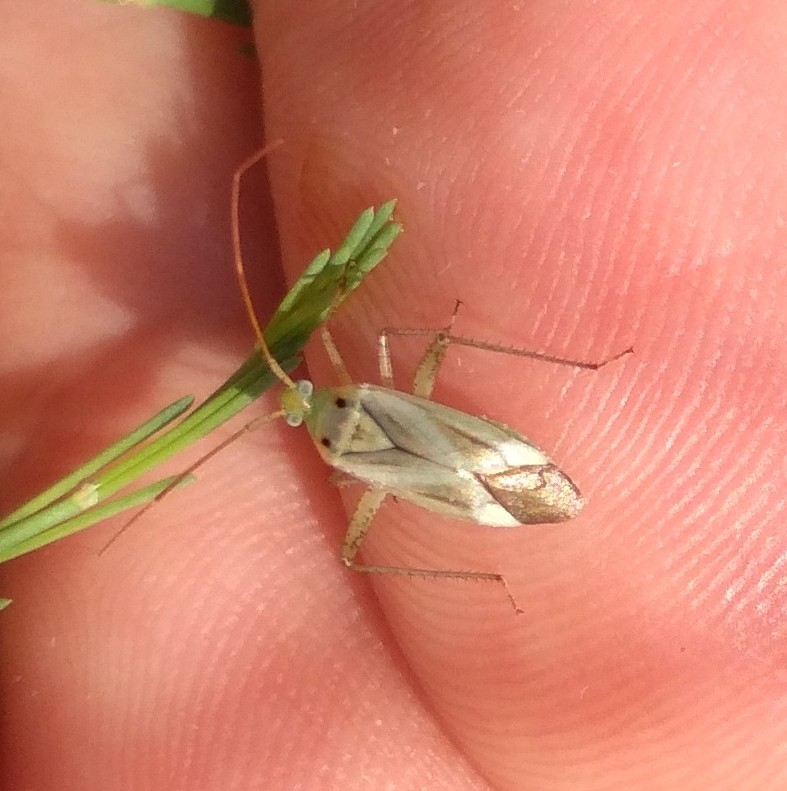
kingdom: Animalia
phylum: Arthropoda
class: Insecta
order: Hemiptera
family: Miridae
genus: Adelphocoris
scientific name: Adelphocoris lineolatus
